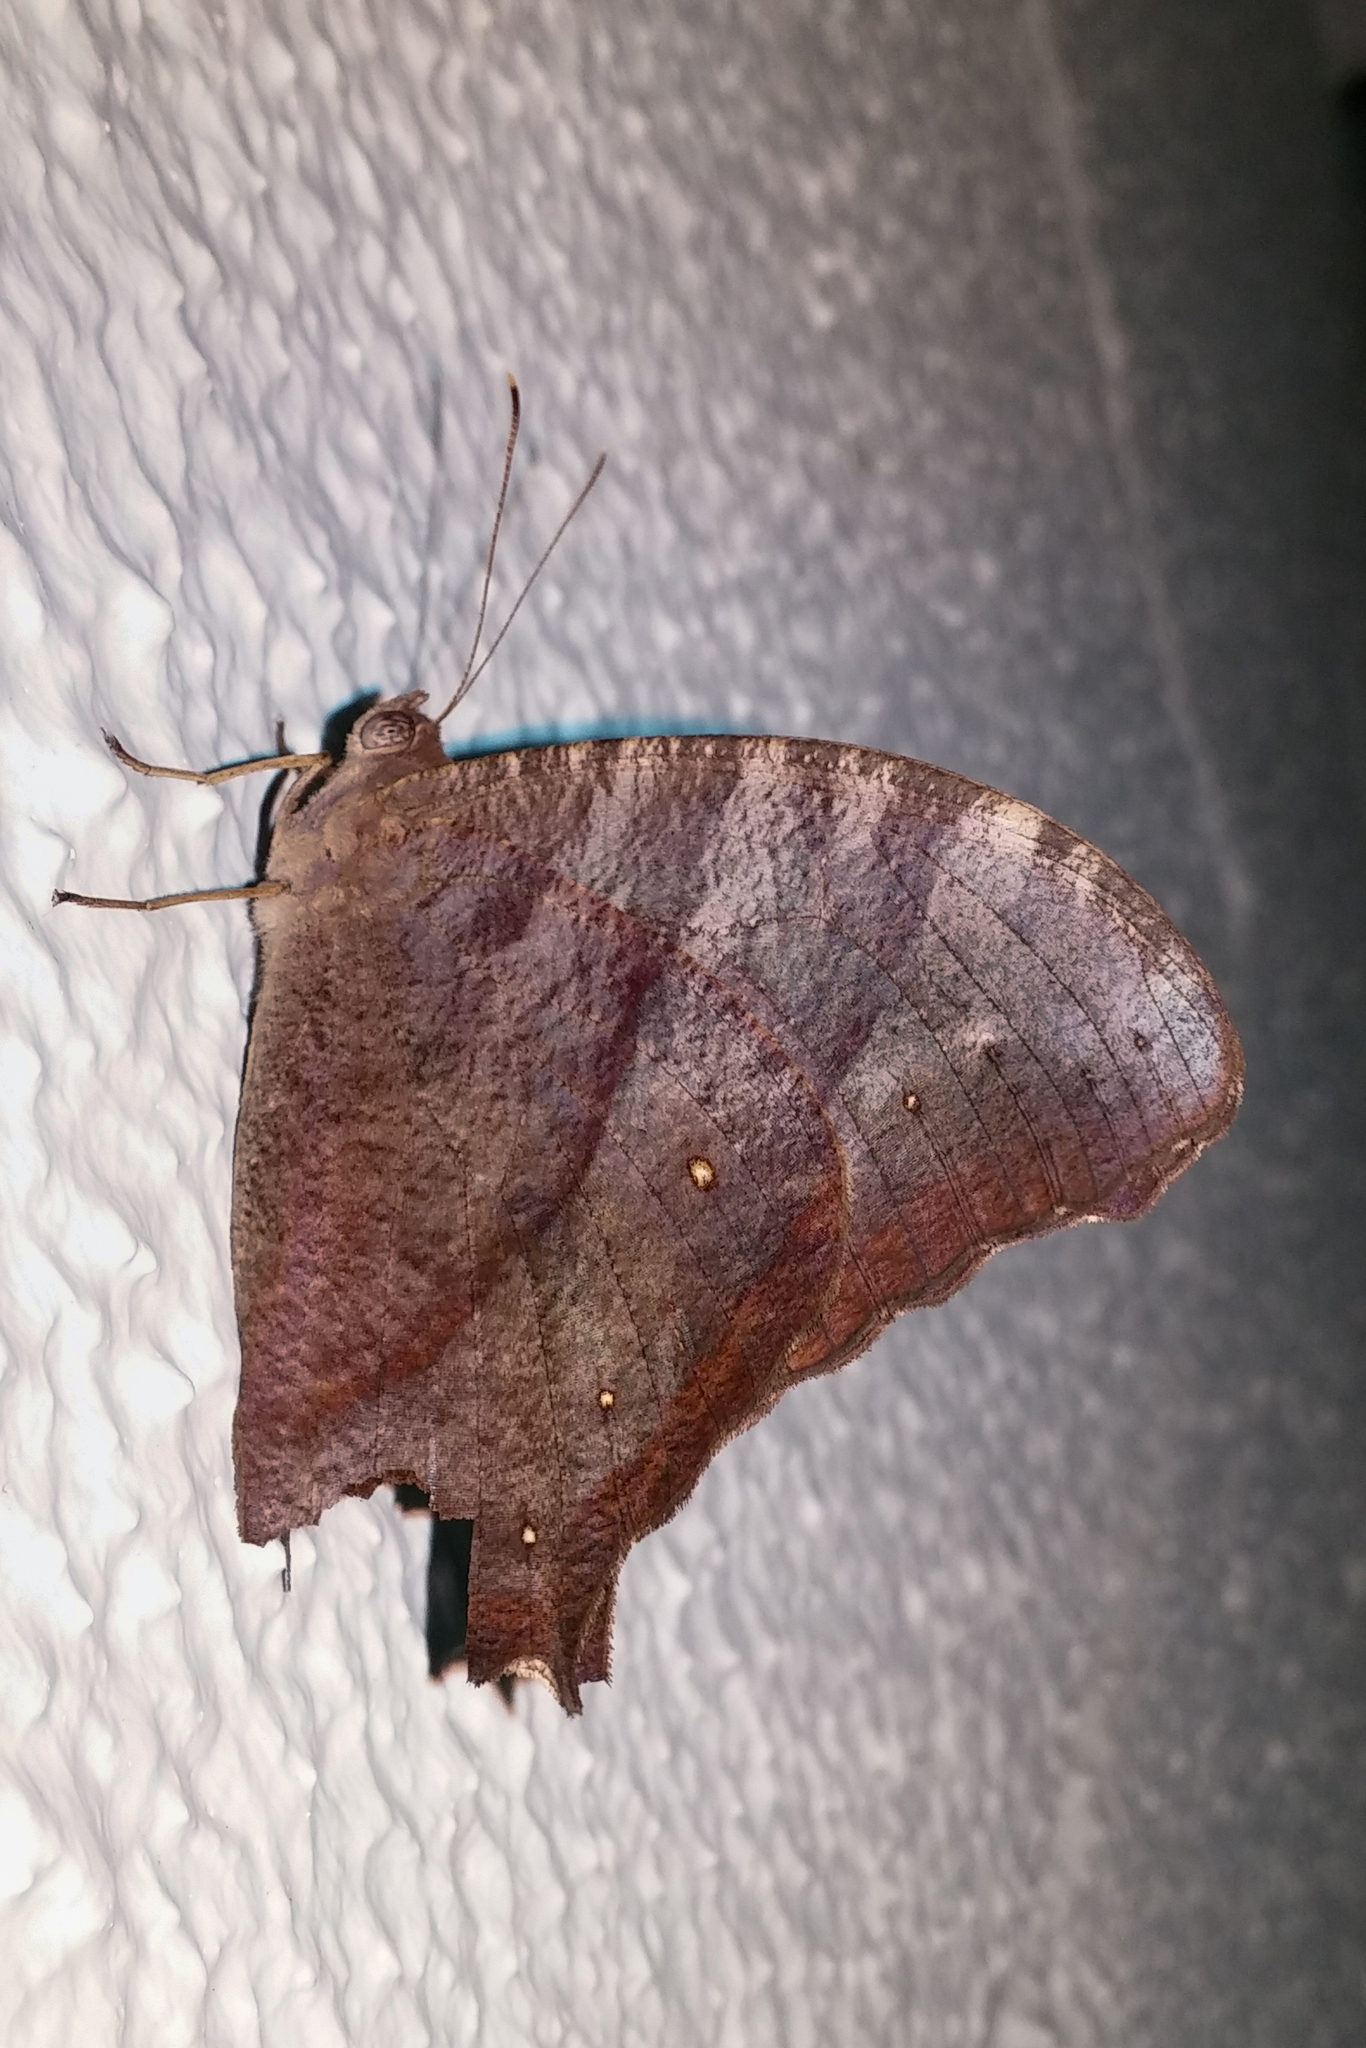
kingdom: Animalia
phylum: Arthropoda
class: Insecta
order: Lepidoptera
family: Nymphalidae
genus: Melanitis
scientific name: Melanitis leda
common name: Twilight brown
